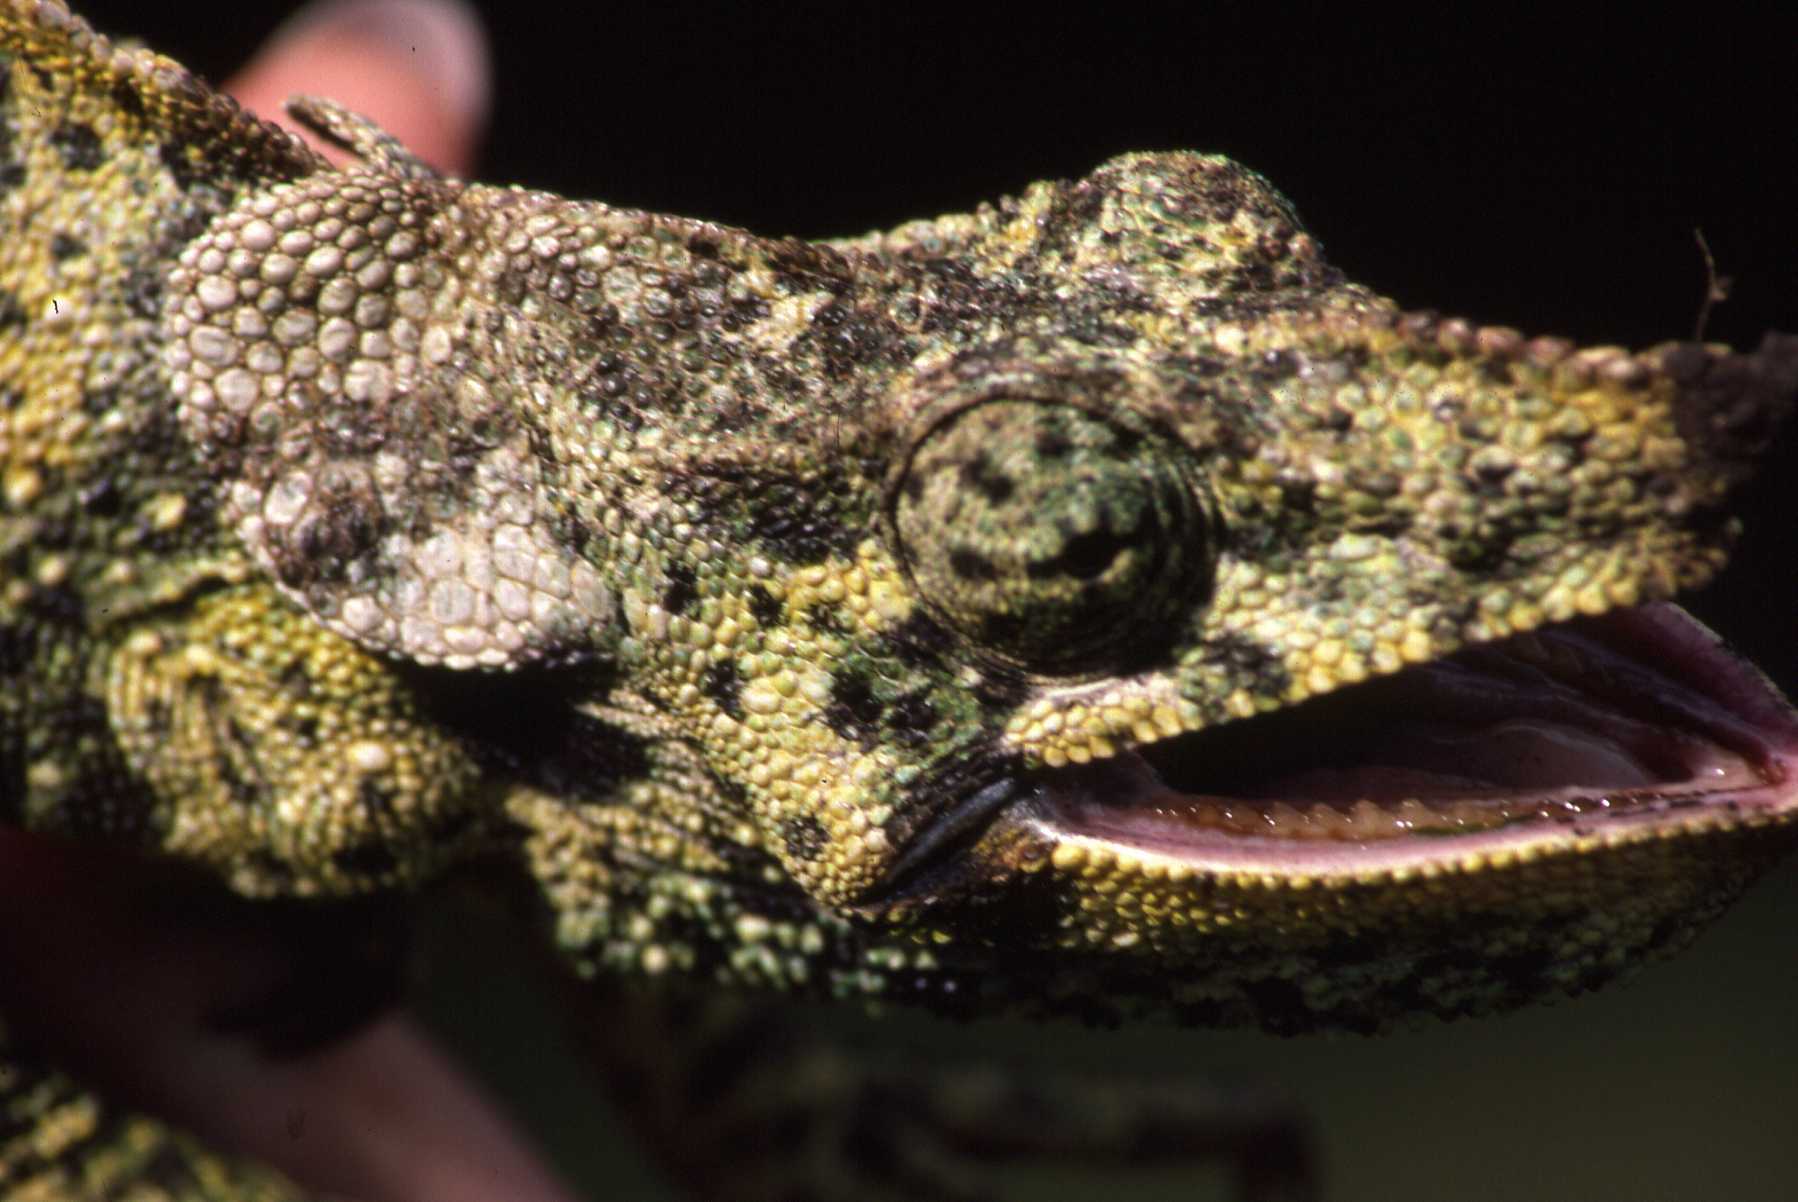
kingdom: Animalia
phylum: Chordata
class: Squamata
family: Chamaeleonidae
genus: Trioceros
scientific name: Trioceros melleri
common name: Meller's chameleon
